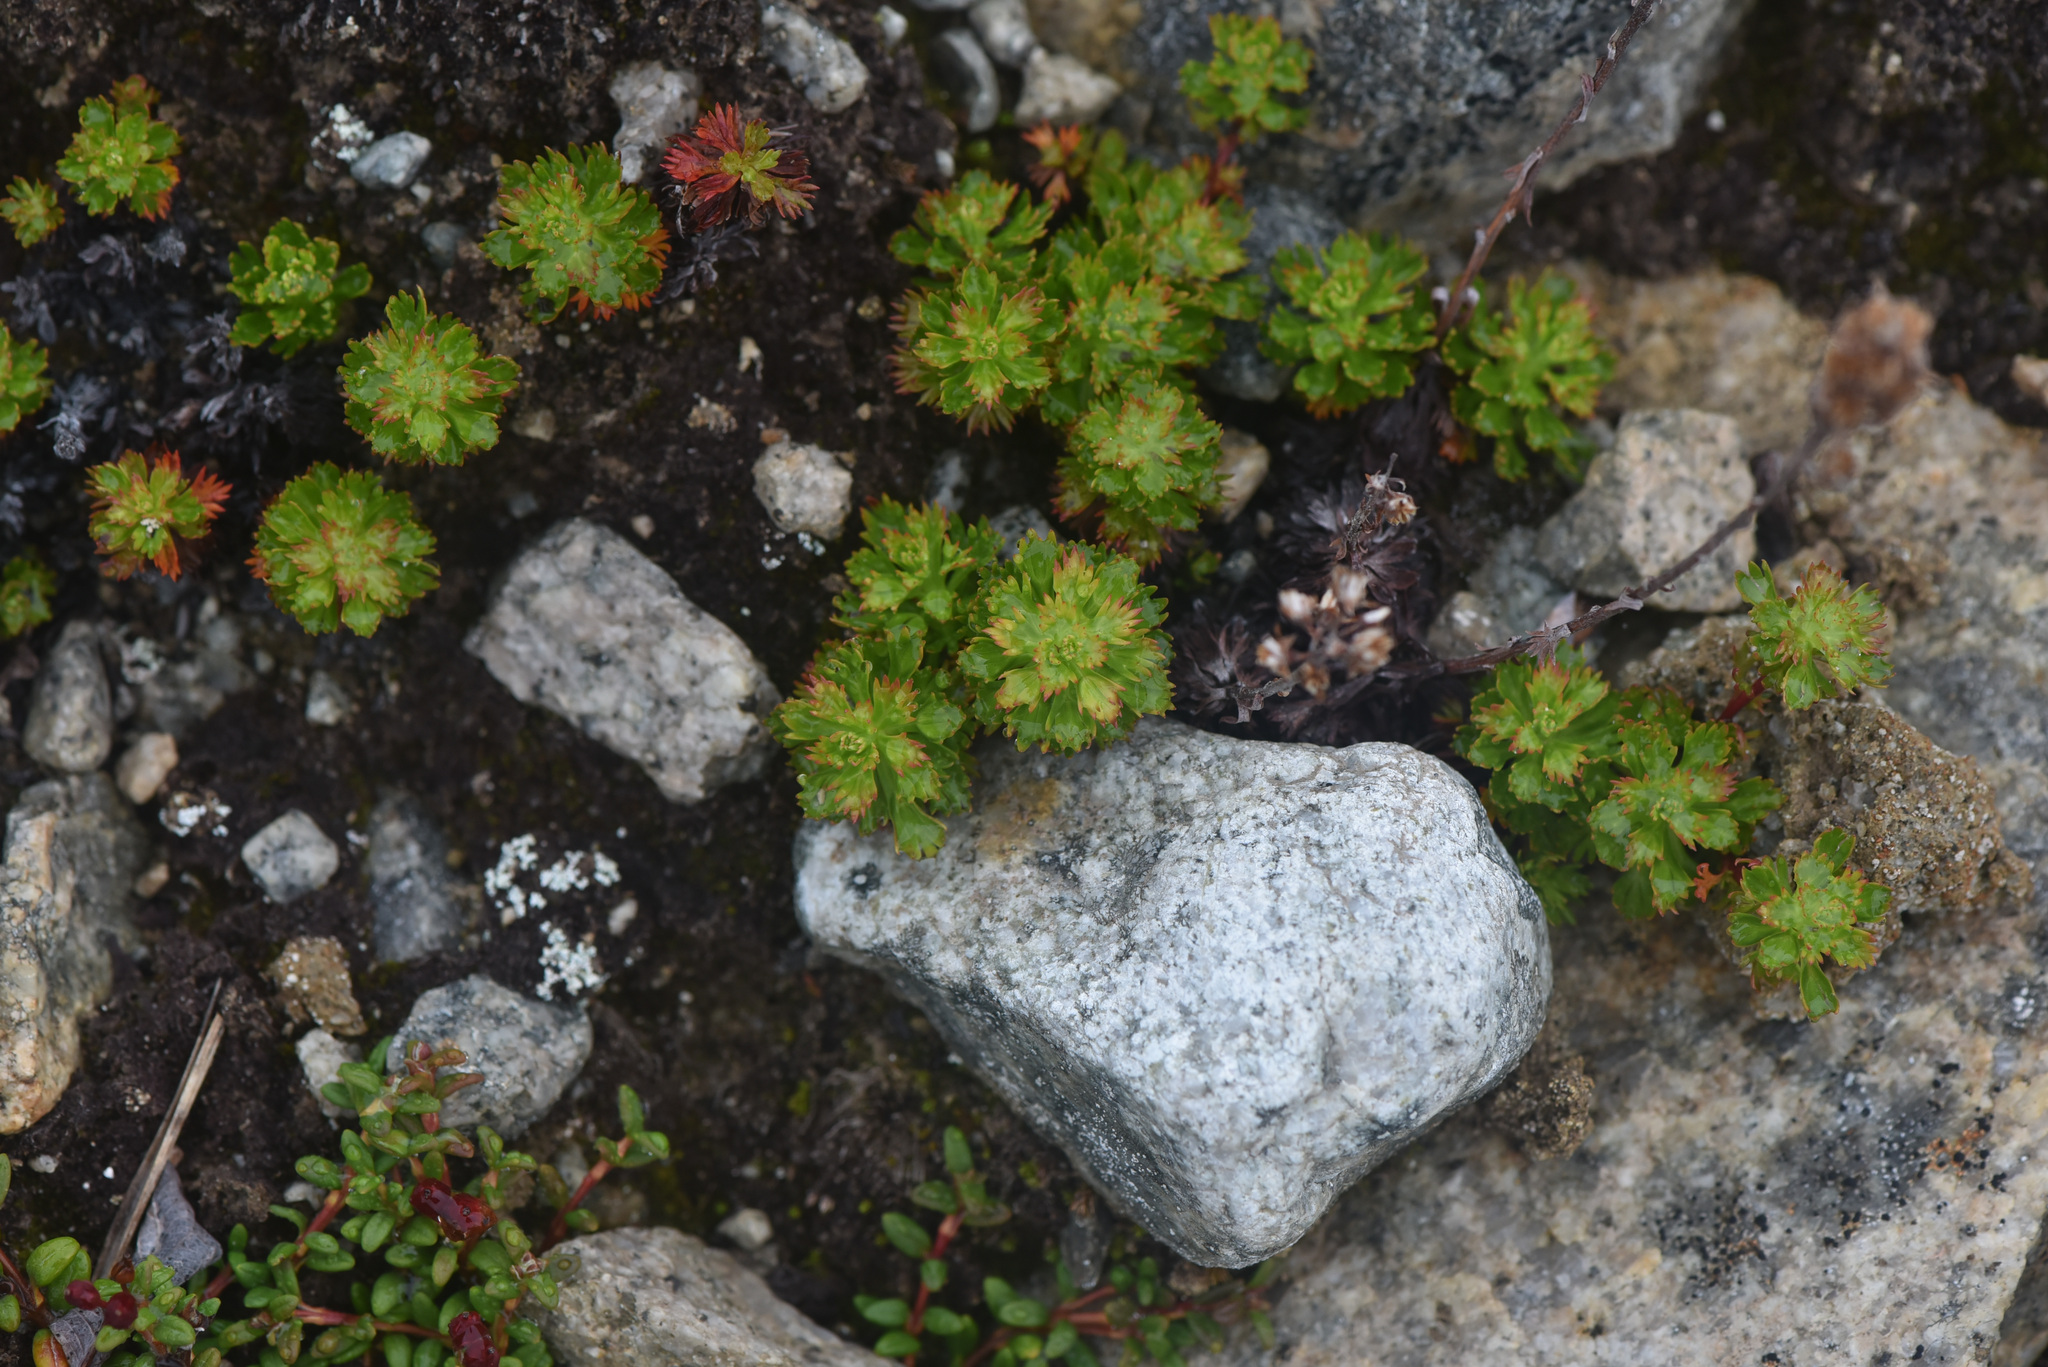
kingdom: Plantae
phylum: Tracheophyta
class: Magnoliopsida
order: Rosales
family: Rosaceae
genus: Luetkea
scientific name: Luetkea pectinata
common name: Partridgefoot
